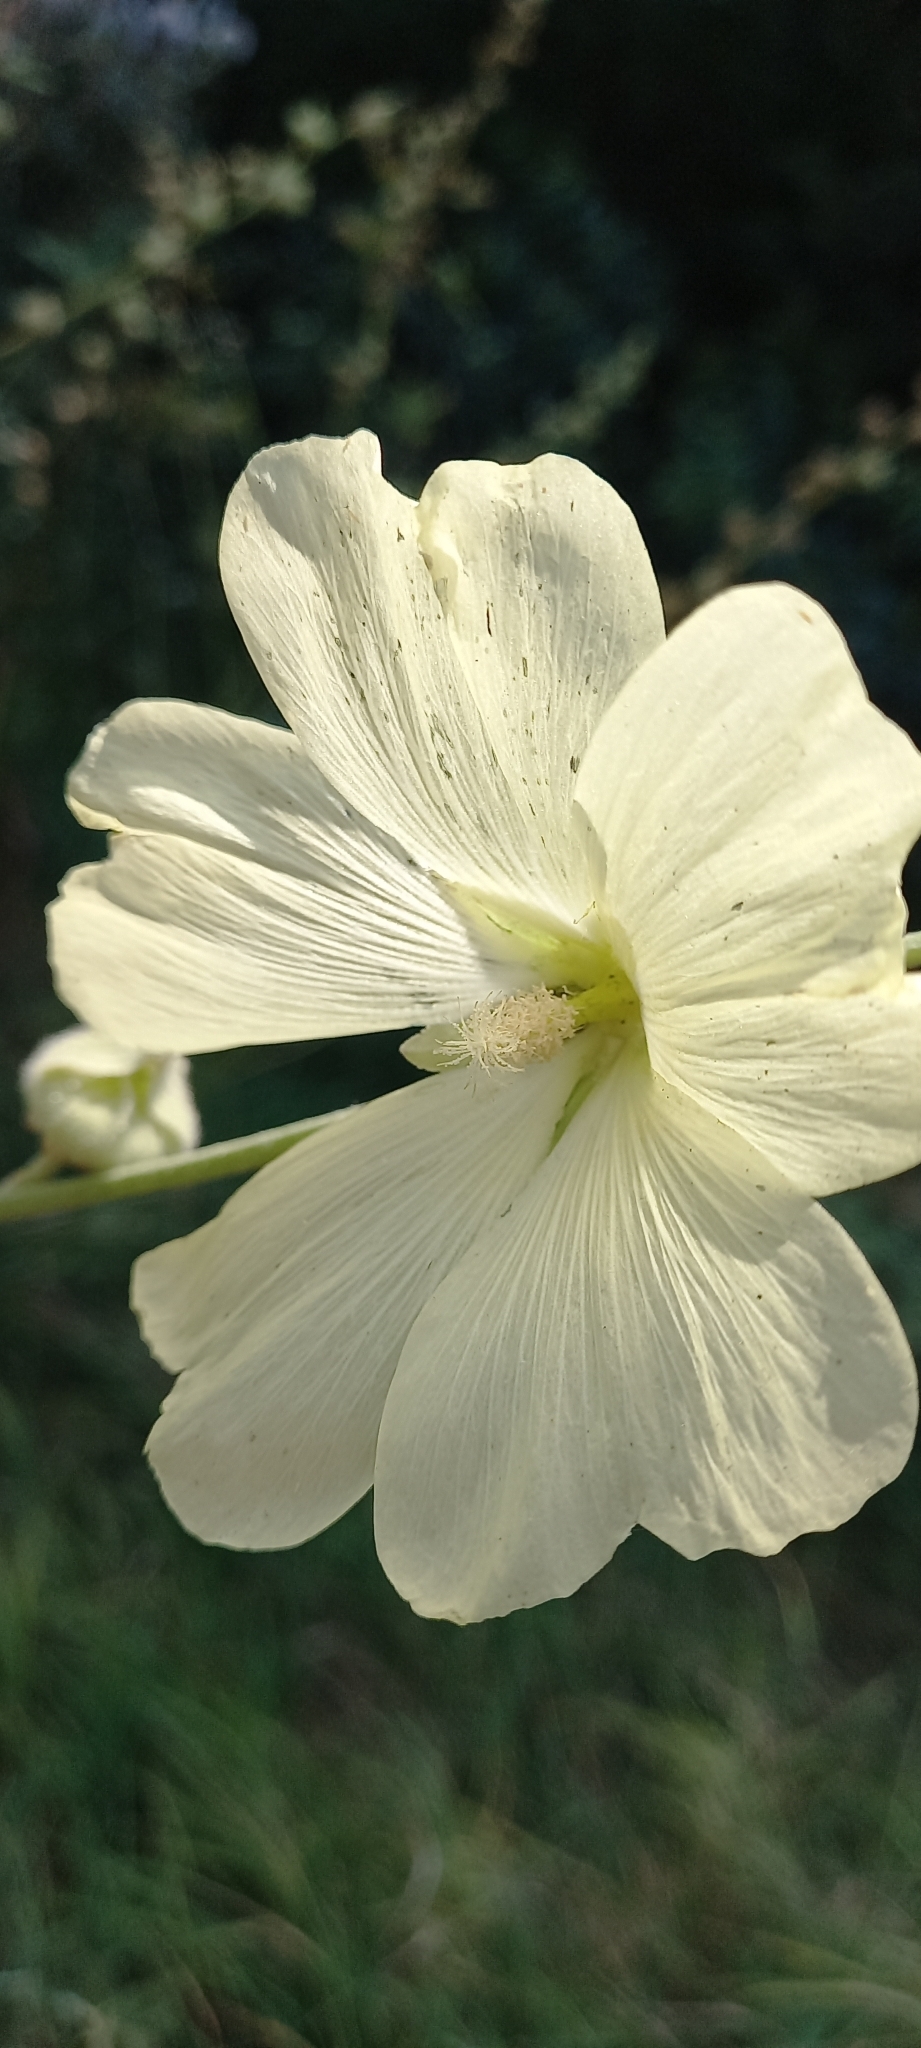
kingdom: Plantae
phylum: Tracheophyta
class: Magnoliopsida
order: Malvales
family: Malvaceae
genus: Alcea
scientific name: Alcea rugosa
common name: Russian hollyhock
